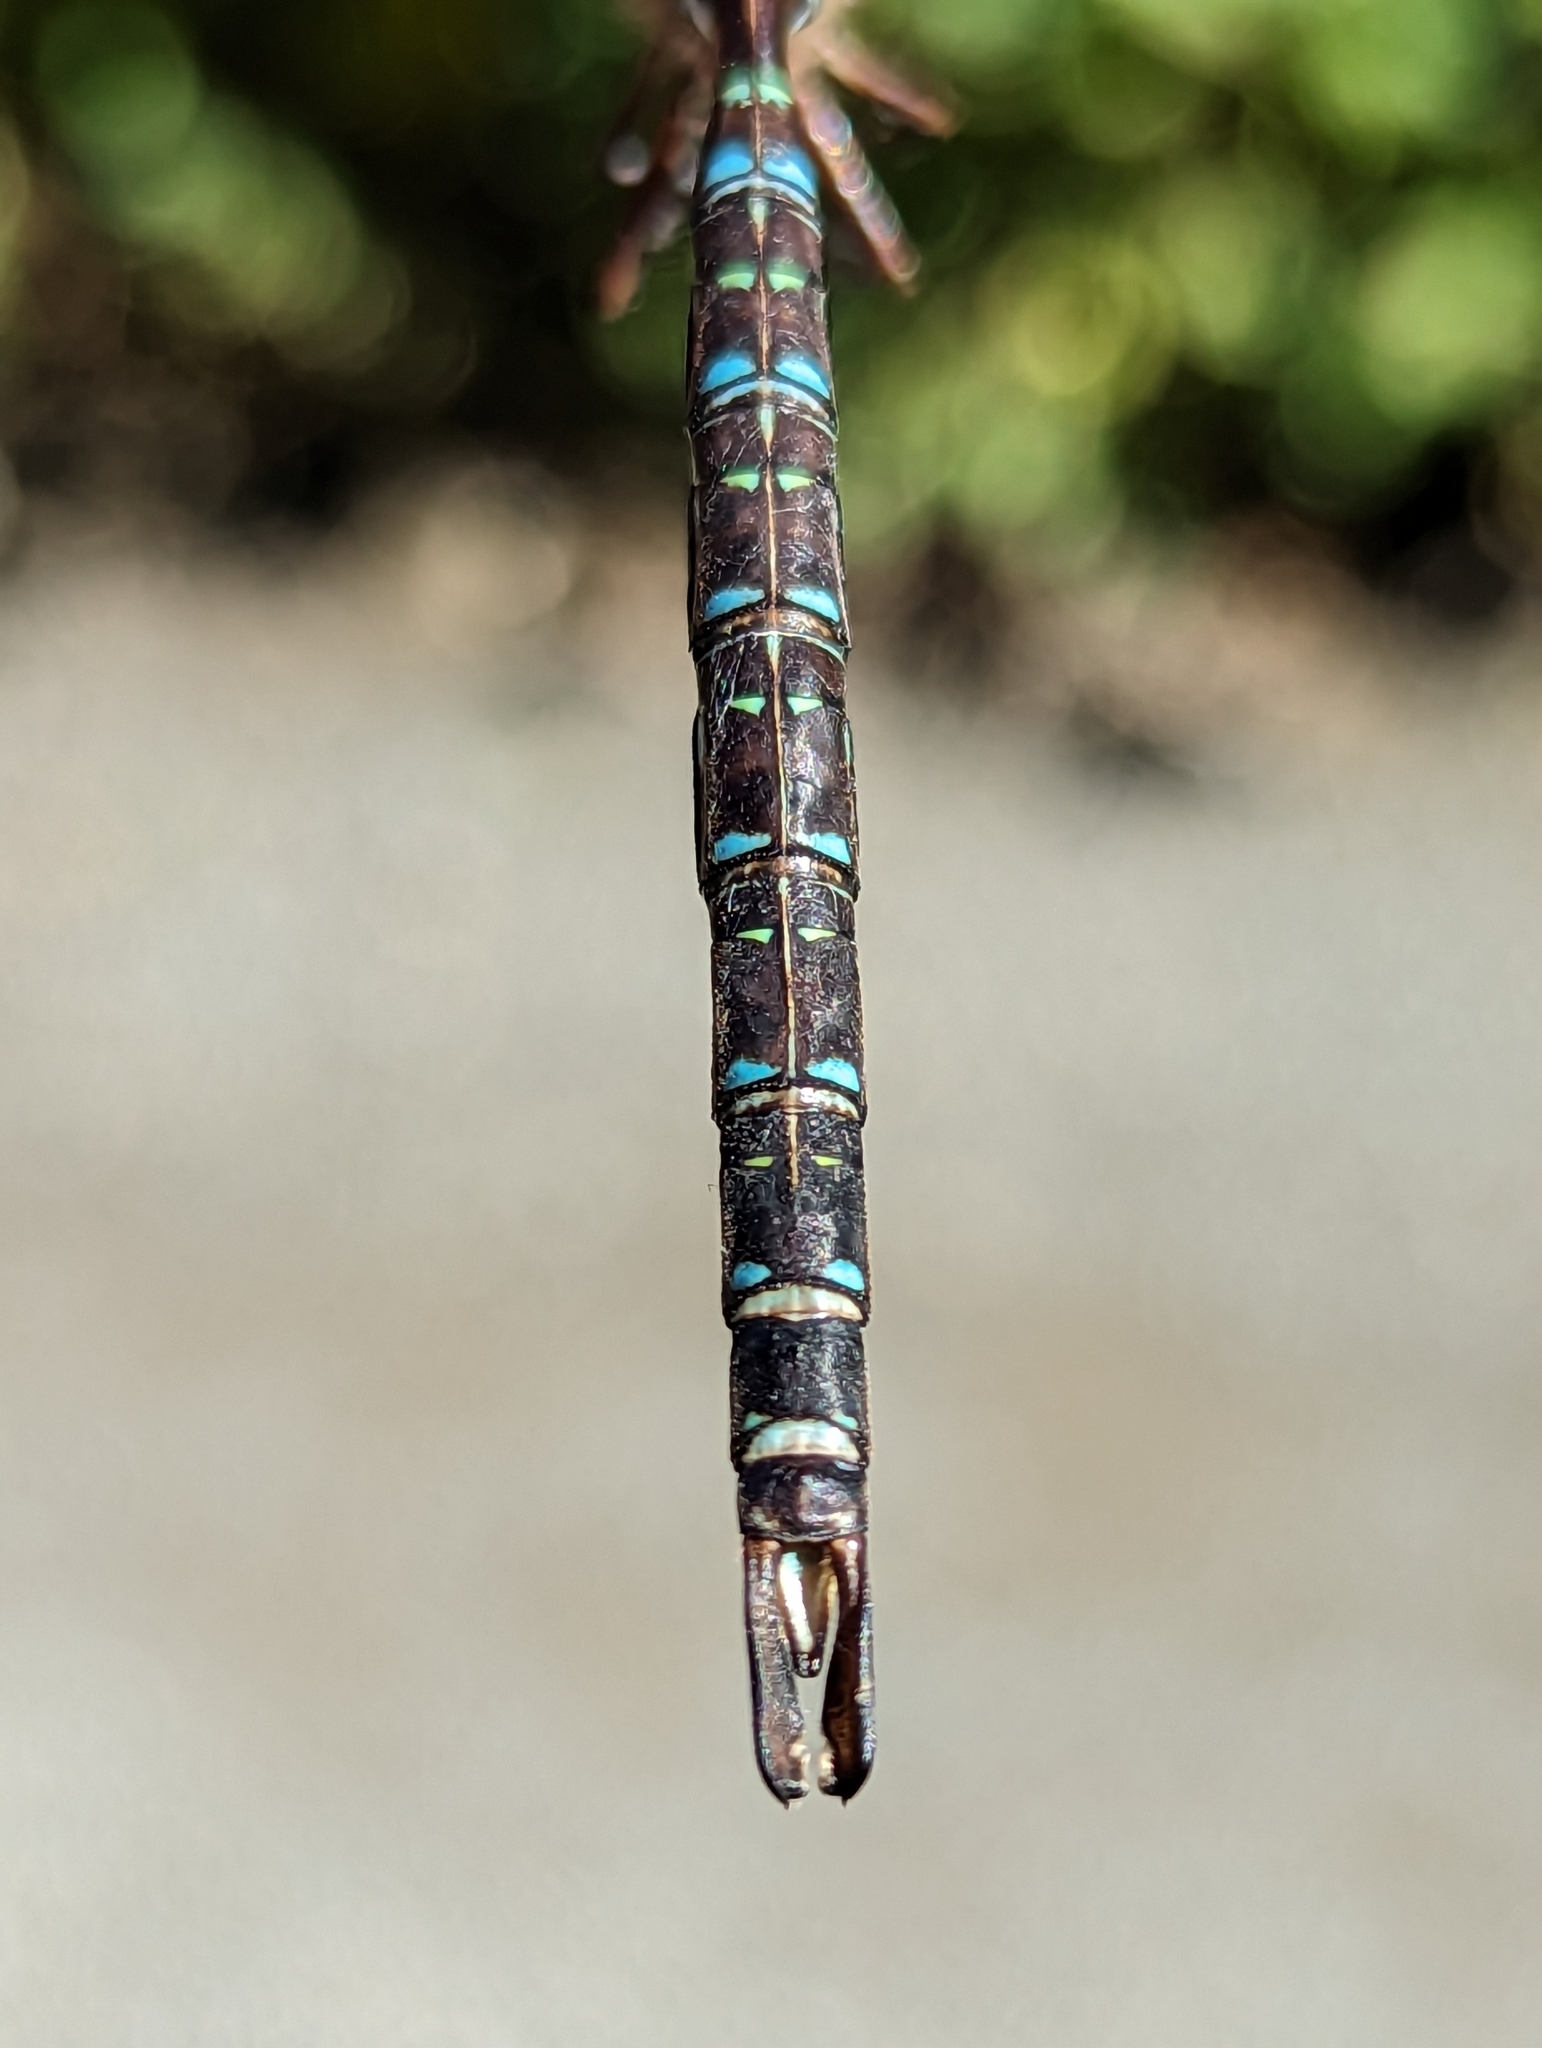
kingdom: Animalia
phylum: Arthropoda
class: Insecta
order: Odonata
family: Aeshnidae
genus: Aeshna
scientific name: Aeshna umbrosa
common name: Shadow darner
